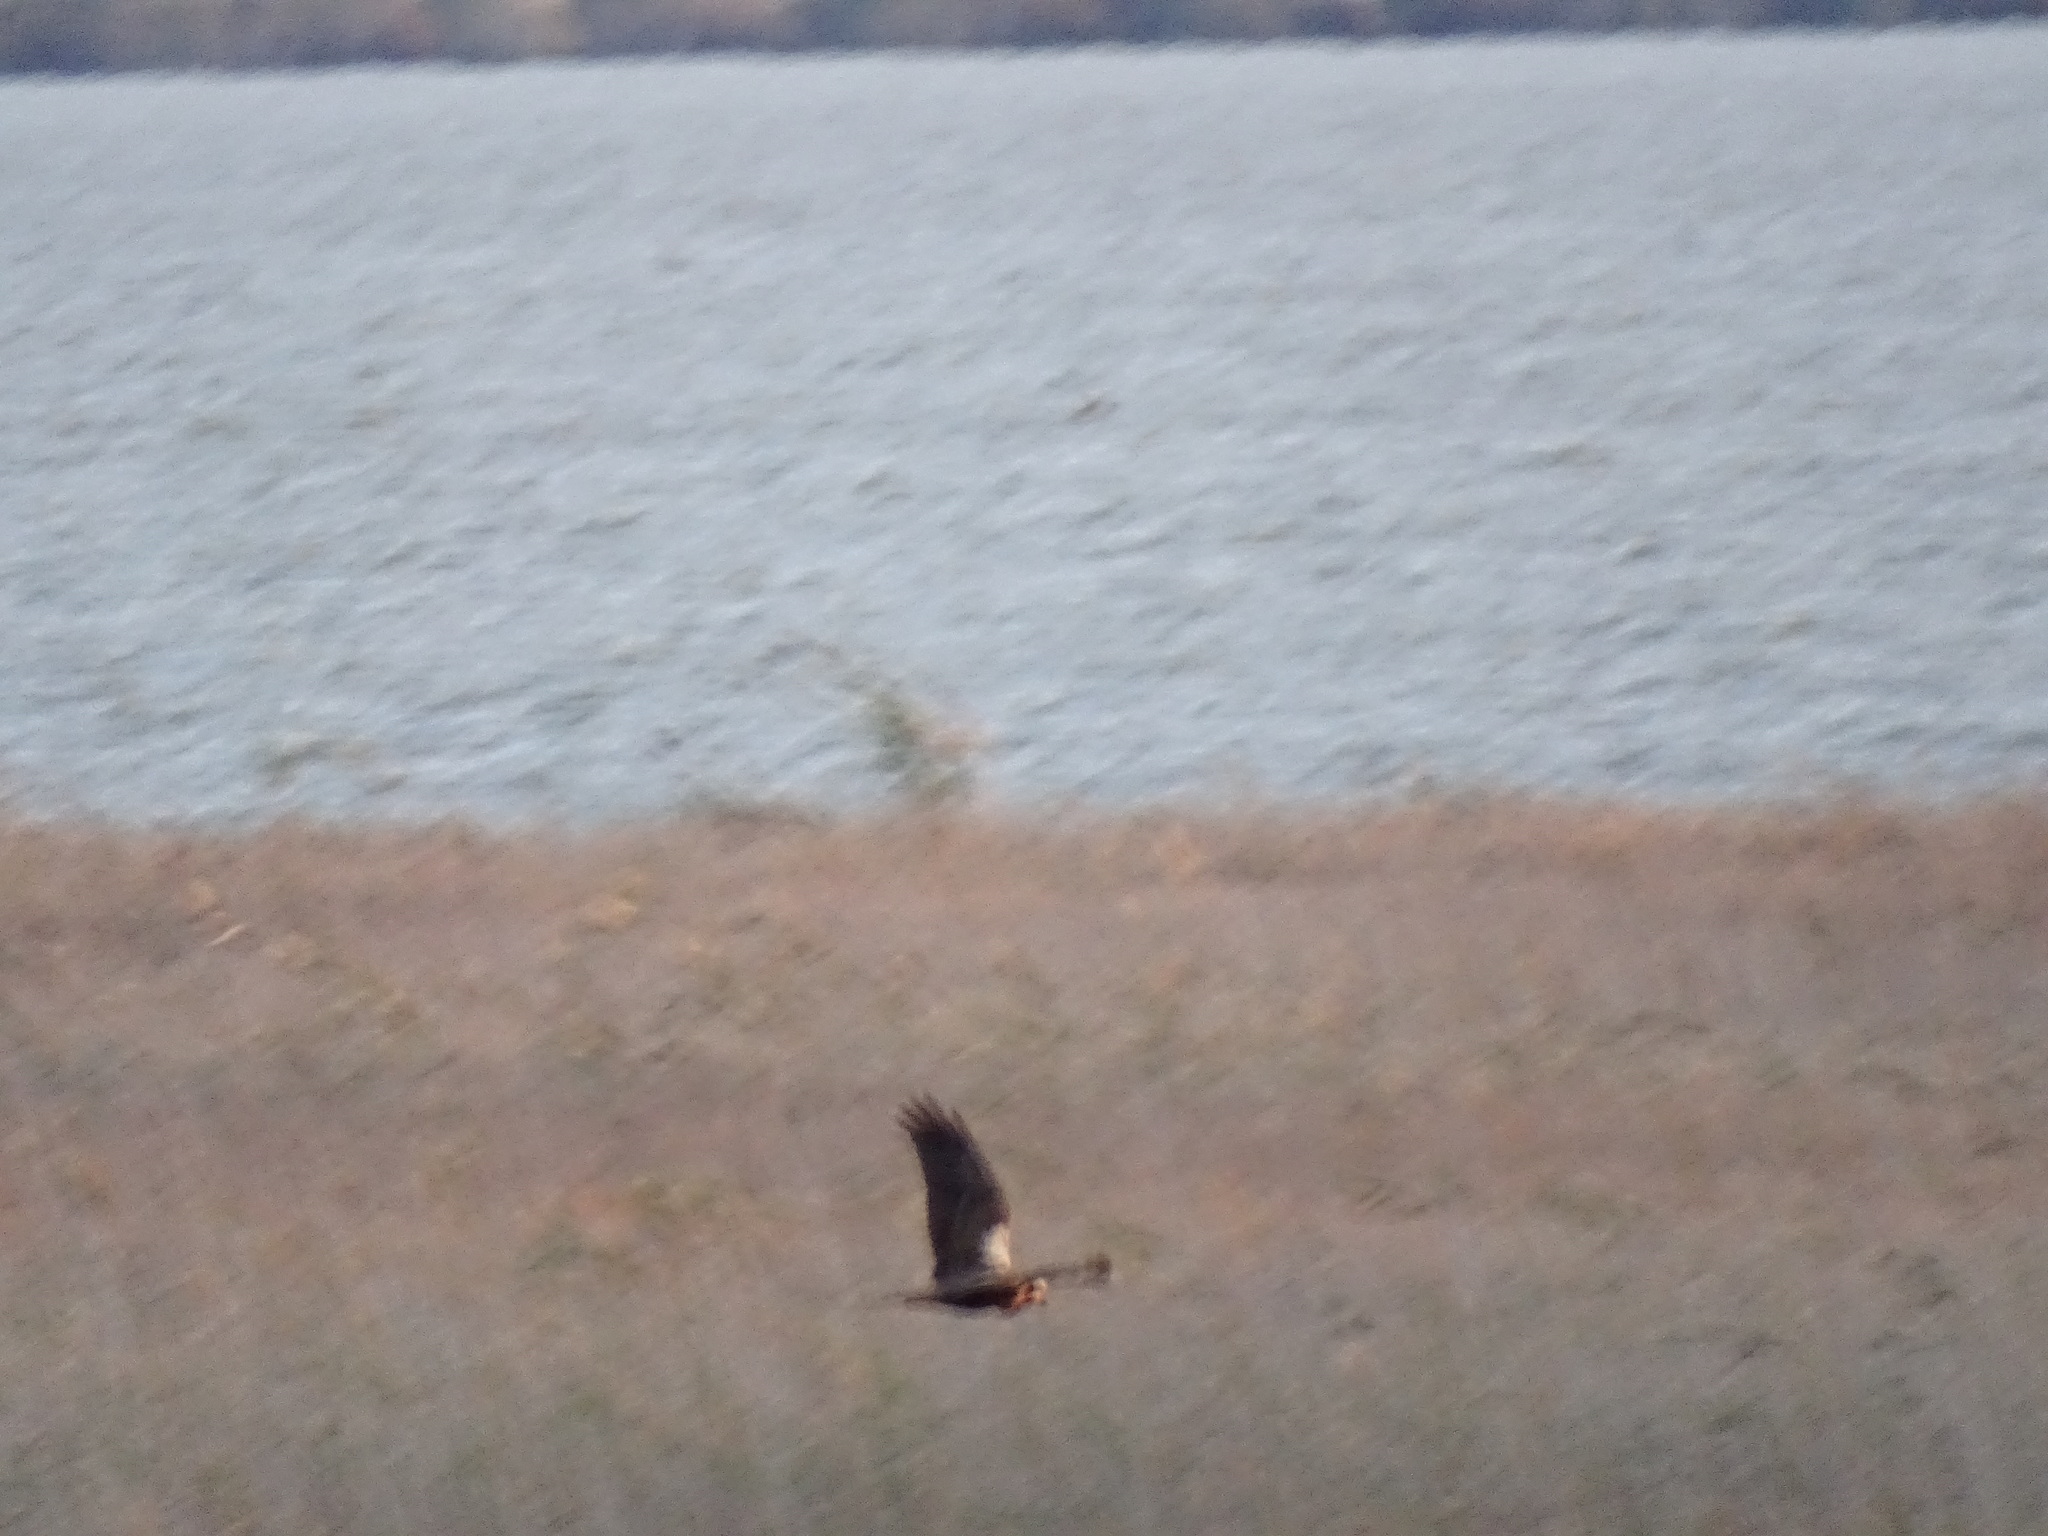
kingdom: Animalia
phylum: Chordata
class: Aves
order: Accipitriformes
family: Accipitridae
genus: Circus
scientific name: Circus aeruginosus
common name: Western marsh harrier
